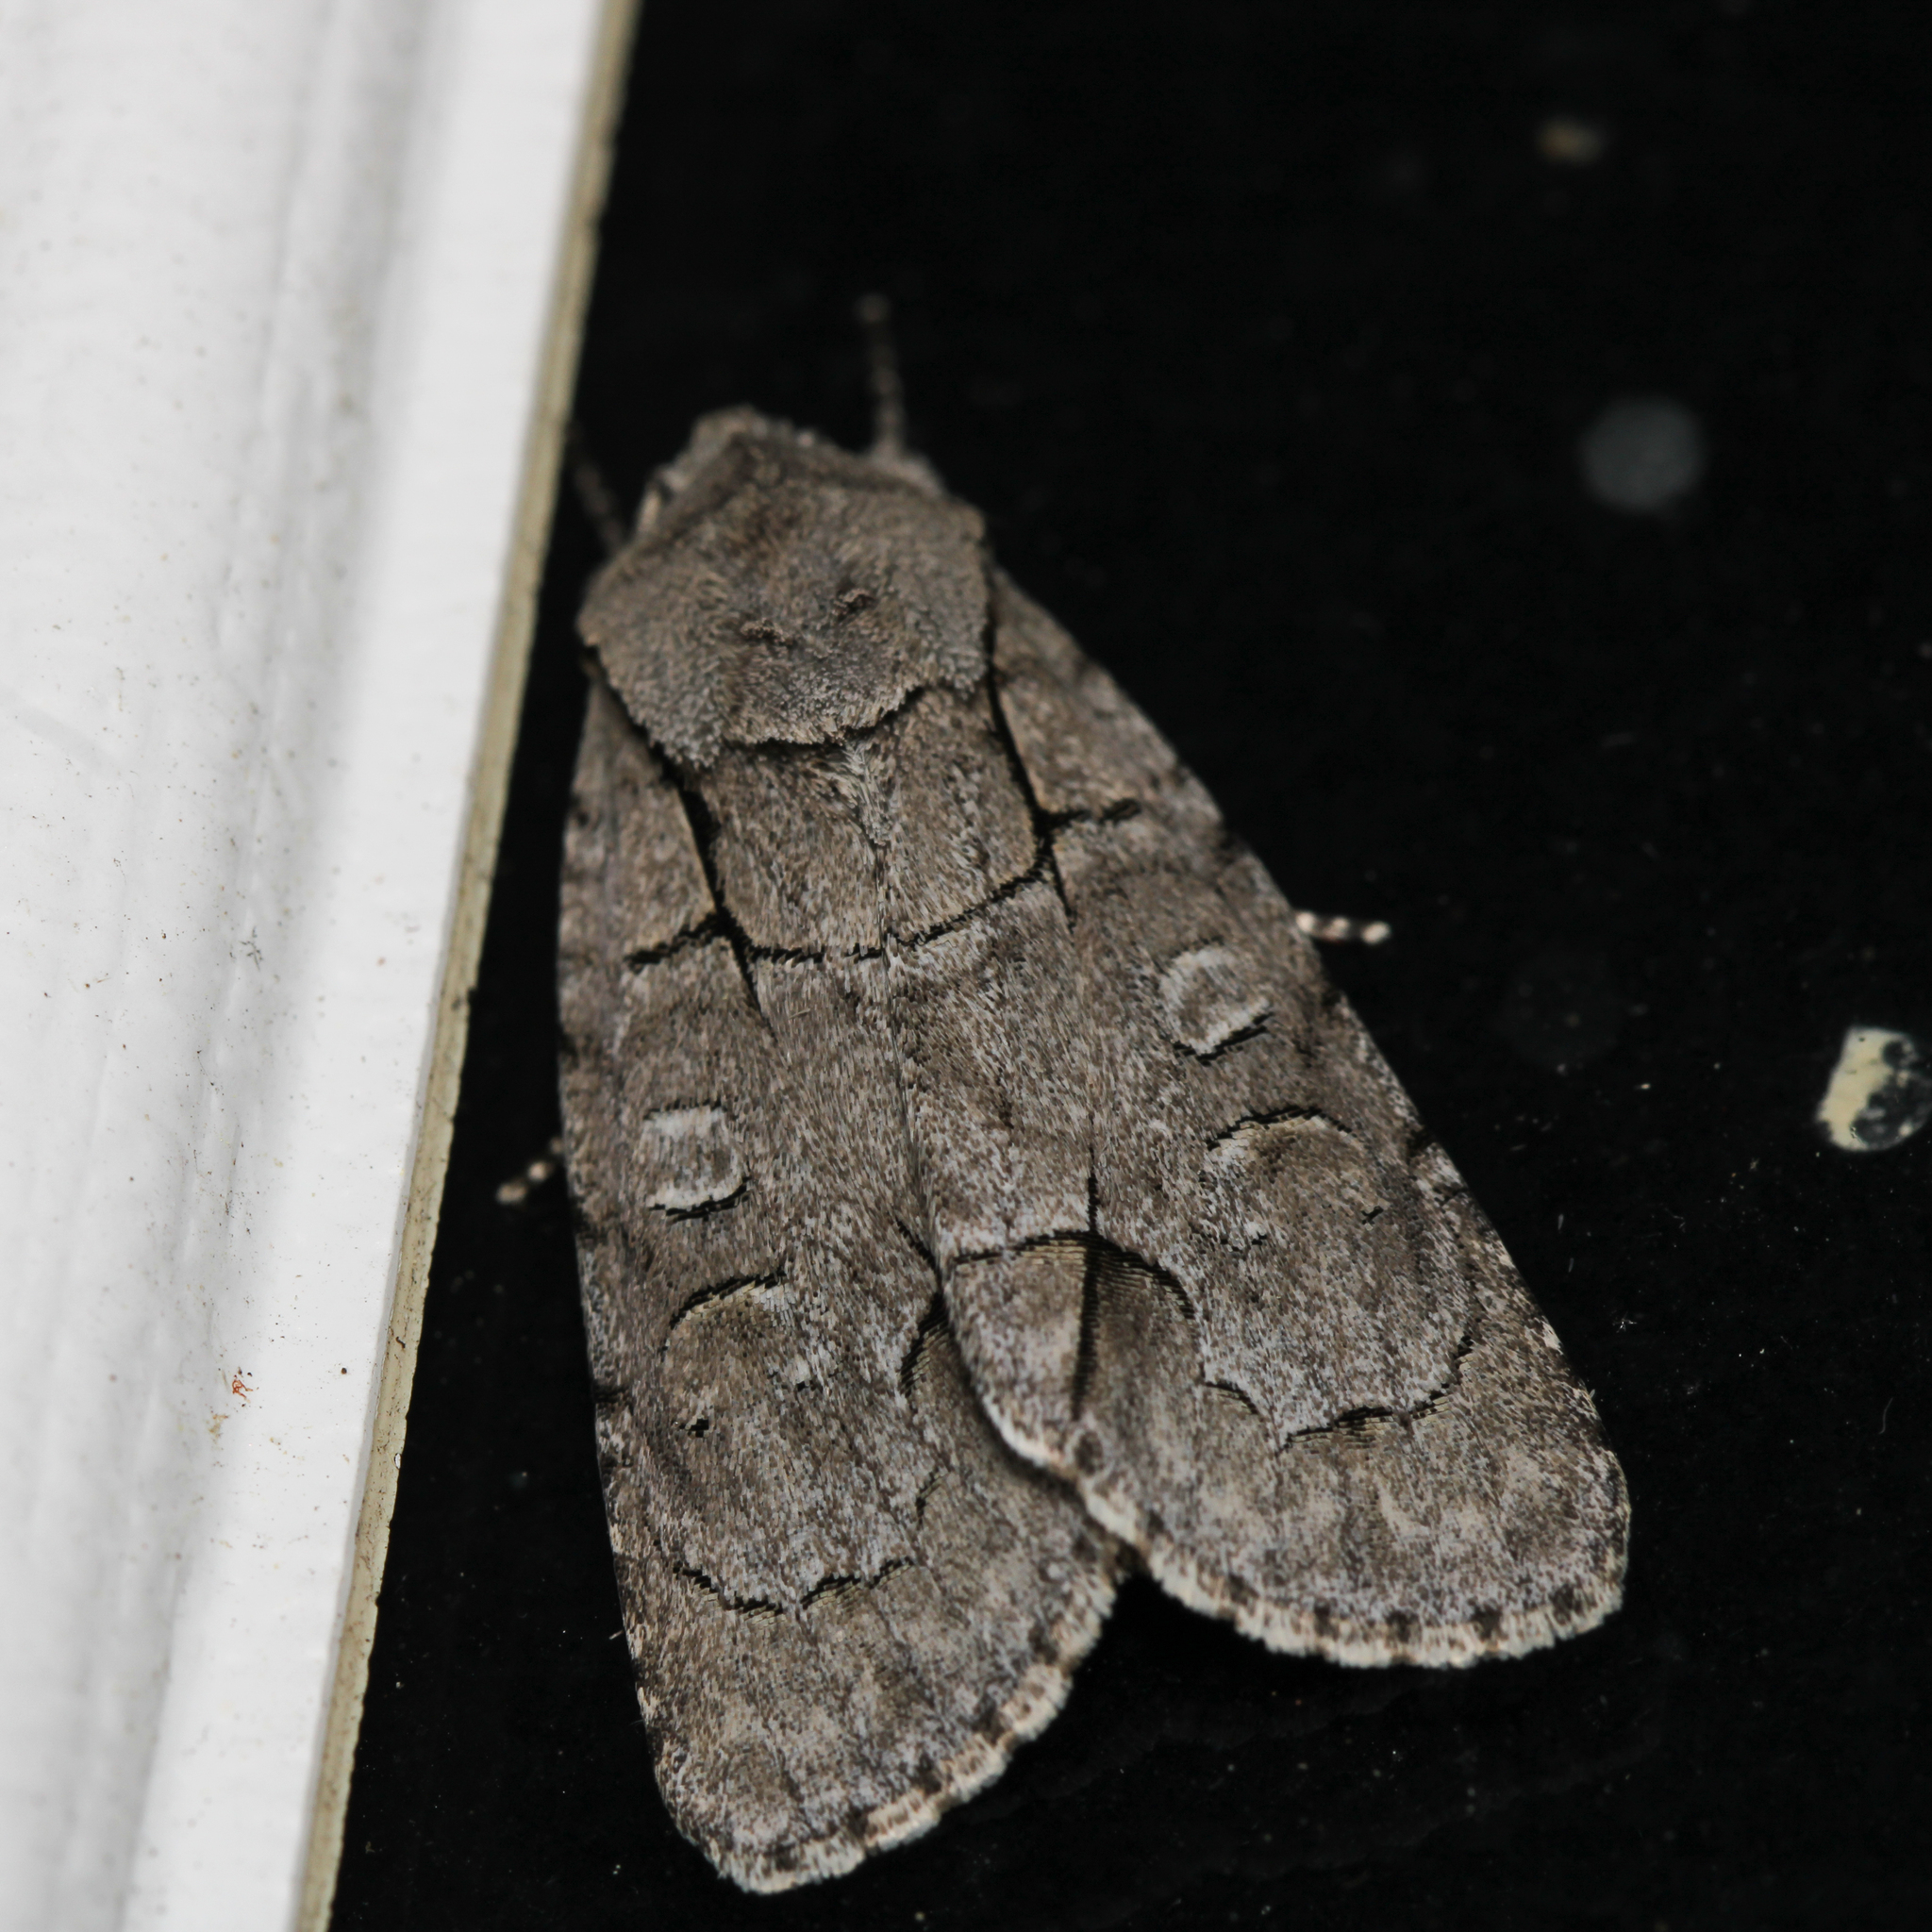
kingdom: Animalia
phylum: Arthropoda
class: Insecta
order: Lepidoptera
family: Noctuidae
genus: Acronicta
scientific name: Acronicta radcliffei
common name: Radcliffe's dagger
